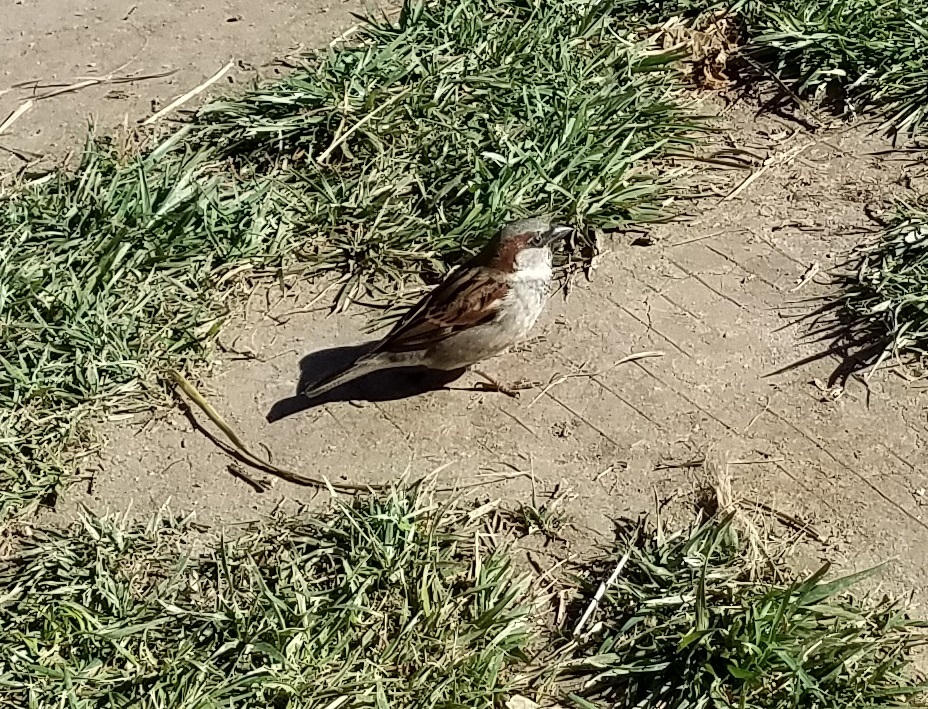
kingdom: Animalia
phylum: Chordata
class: Aves
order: Passeriformes
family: Passeridae
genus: Passer
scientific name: Passer domesticus
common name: House sparrow
